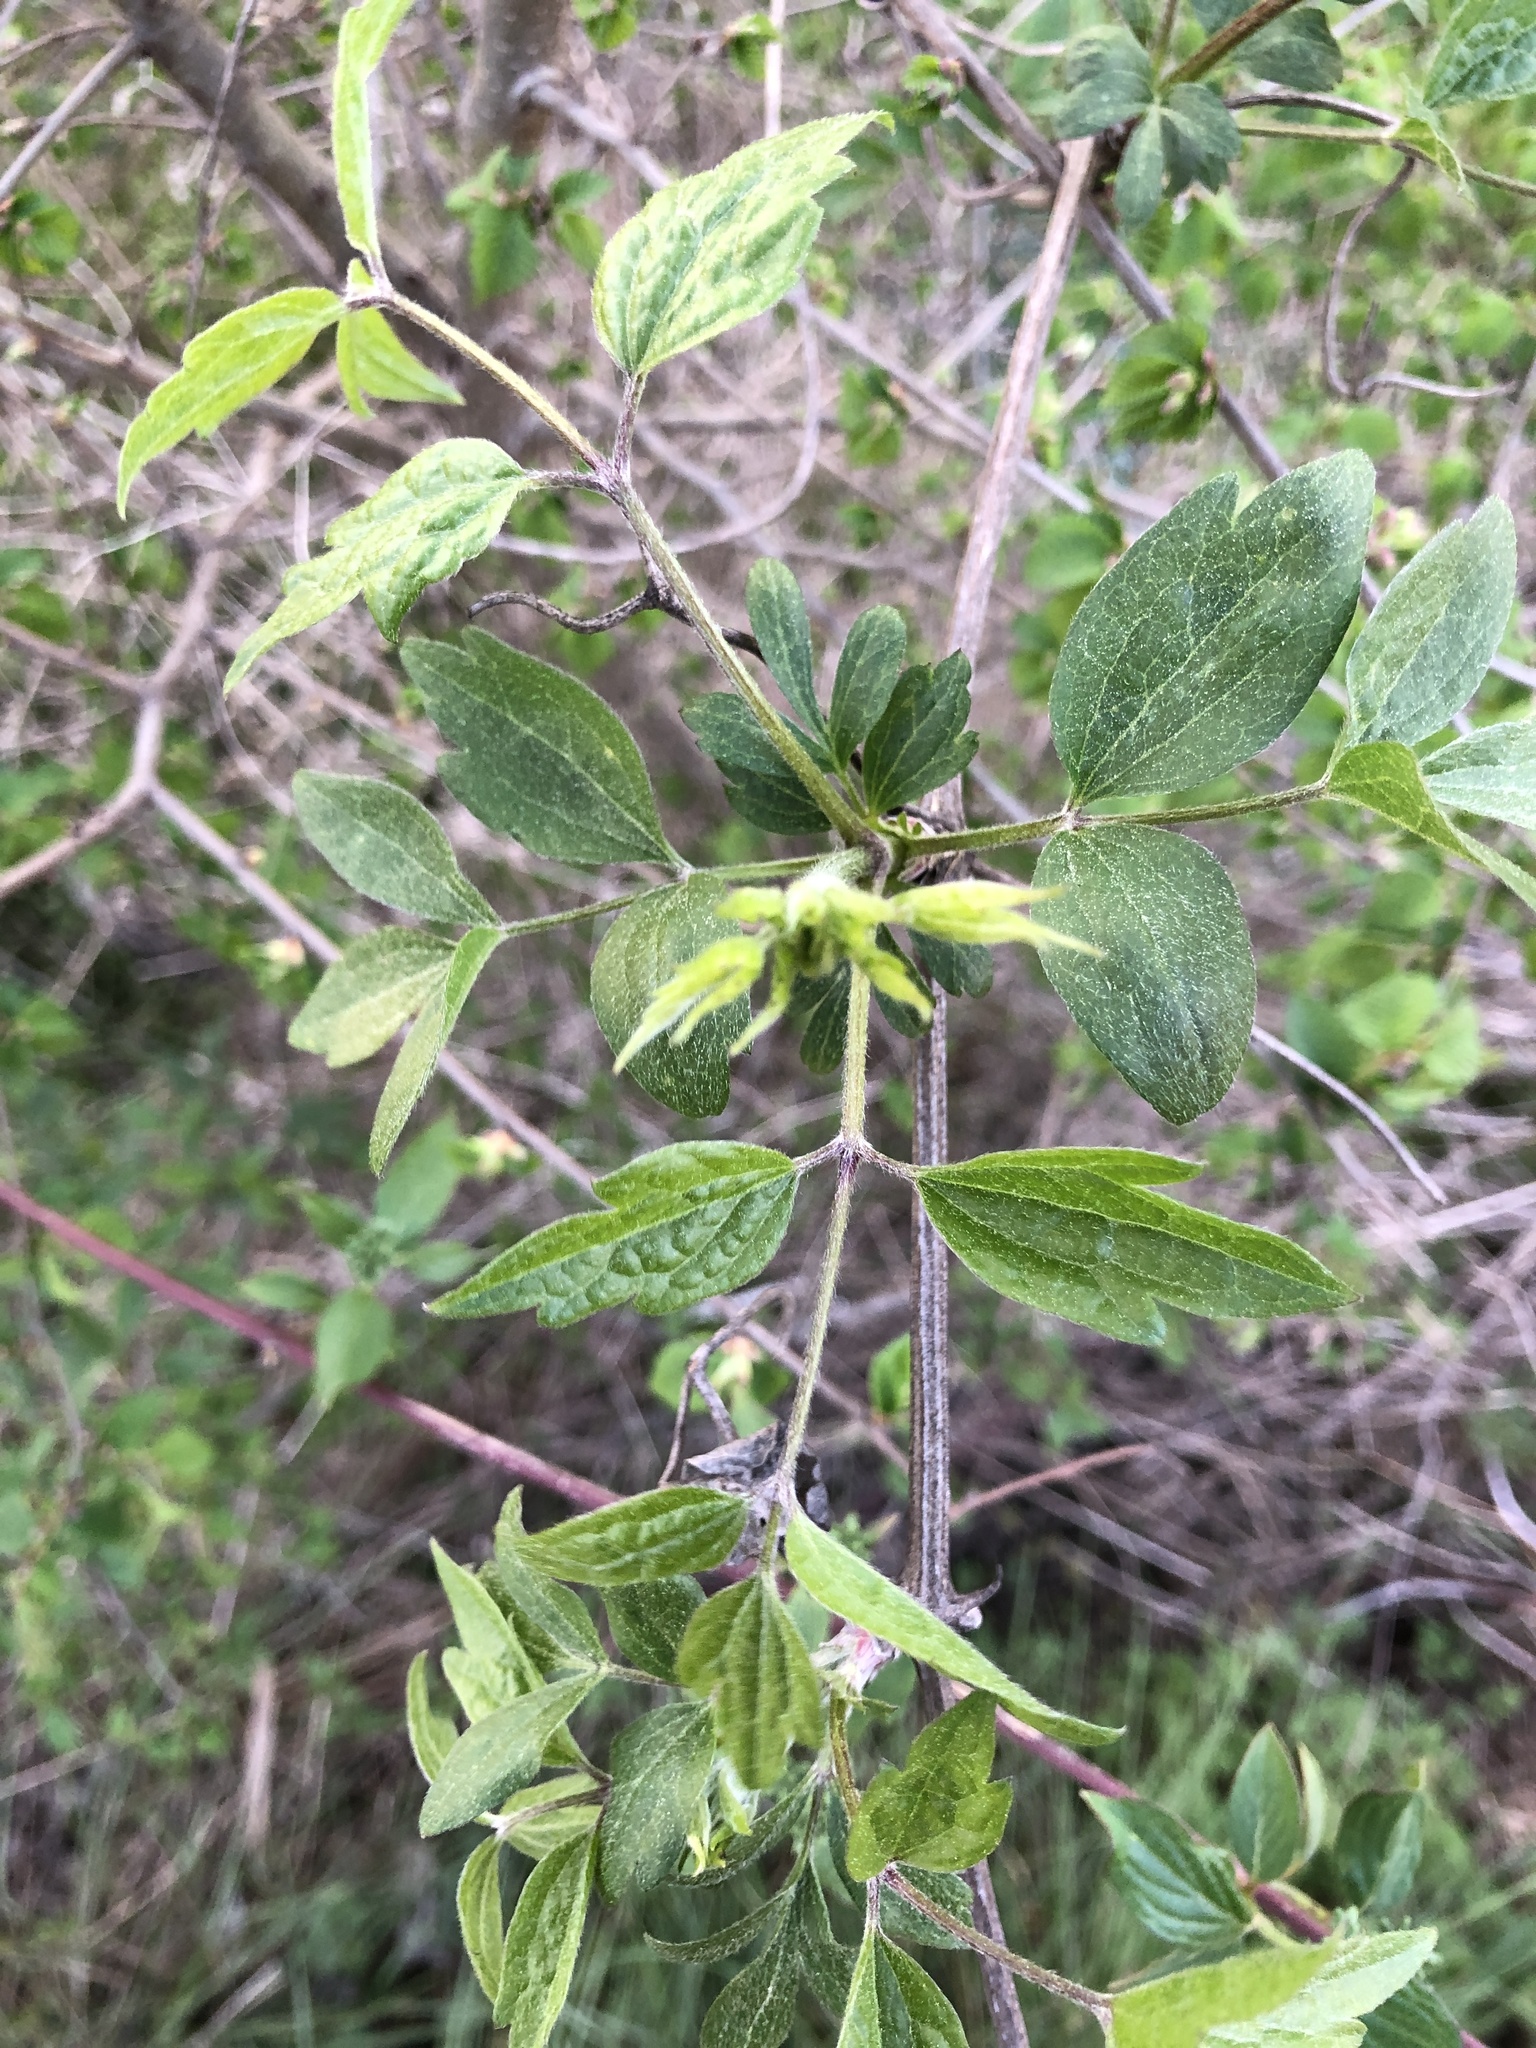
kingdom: Plantae
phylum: Tracheophyta
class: Magnoliopsida
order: Ranunculales
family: Ranunculaceae
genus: Clematis
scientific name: Clematis vitalba
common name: Evergreen clematis
